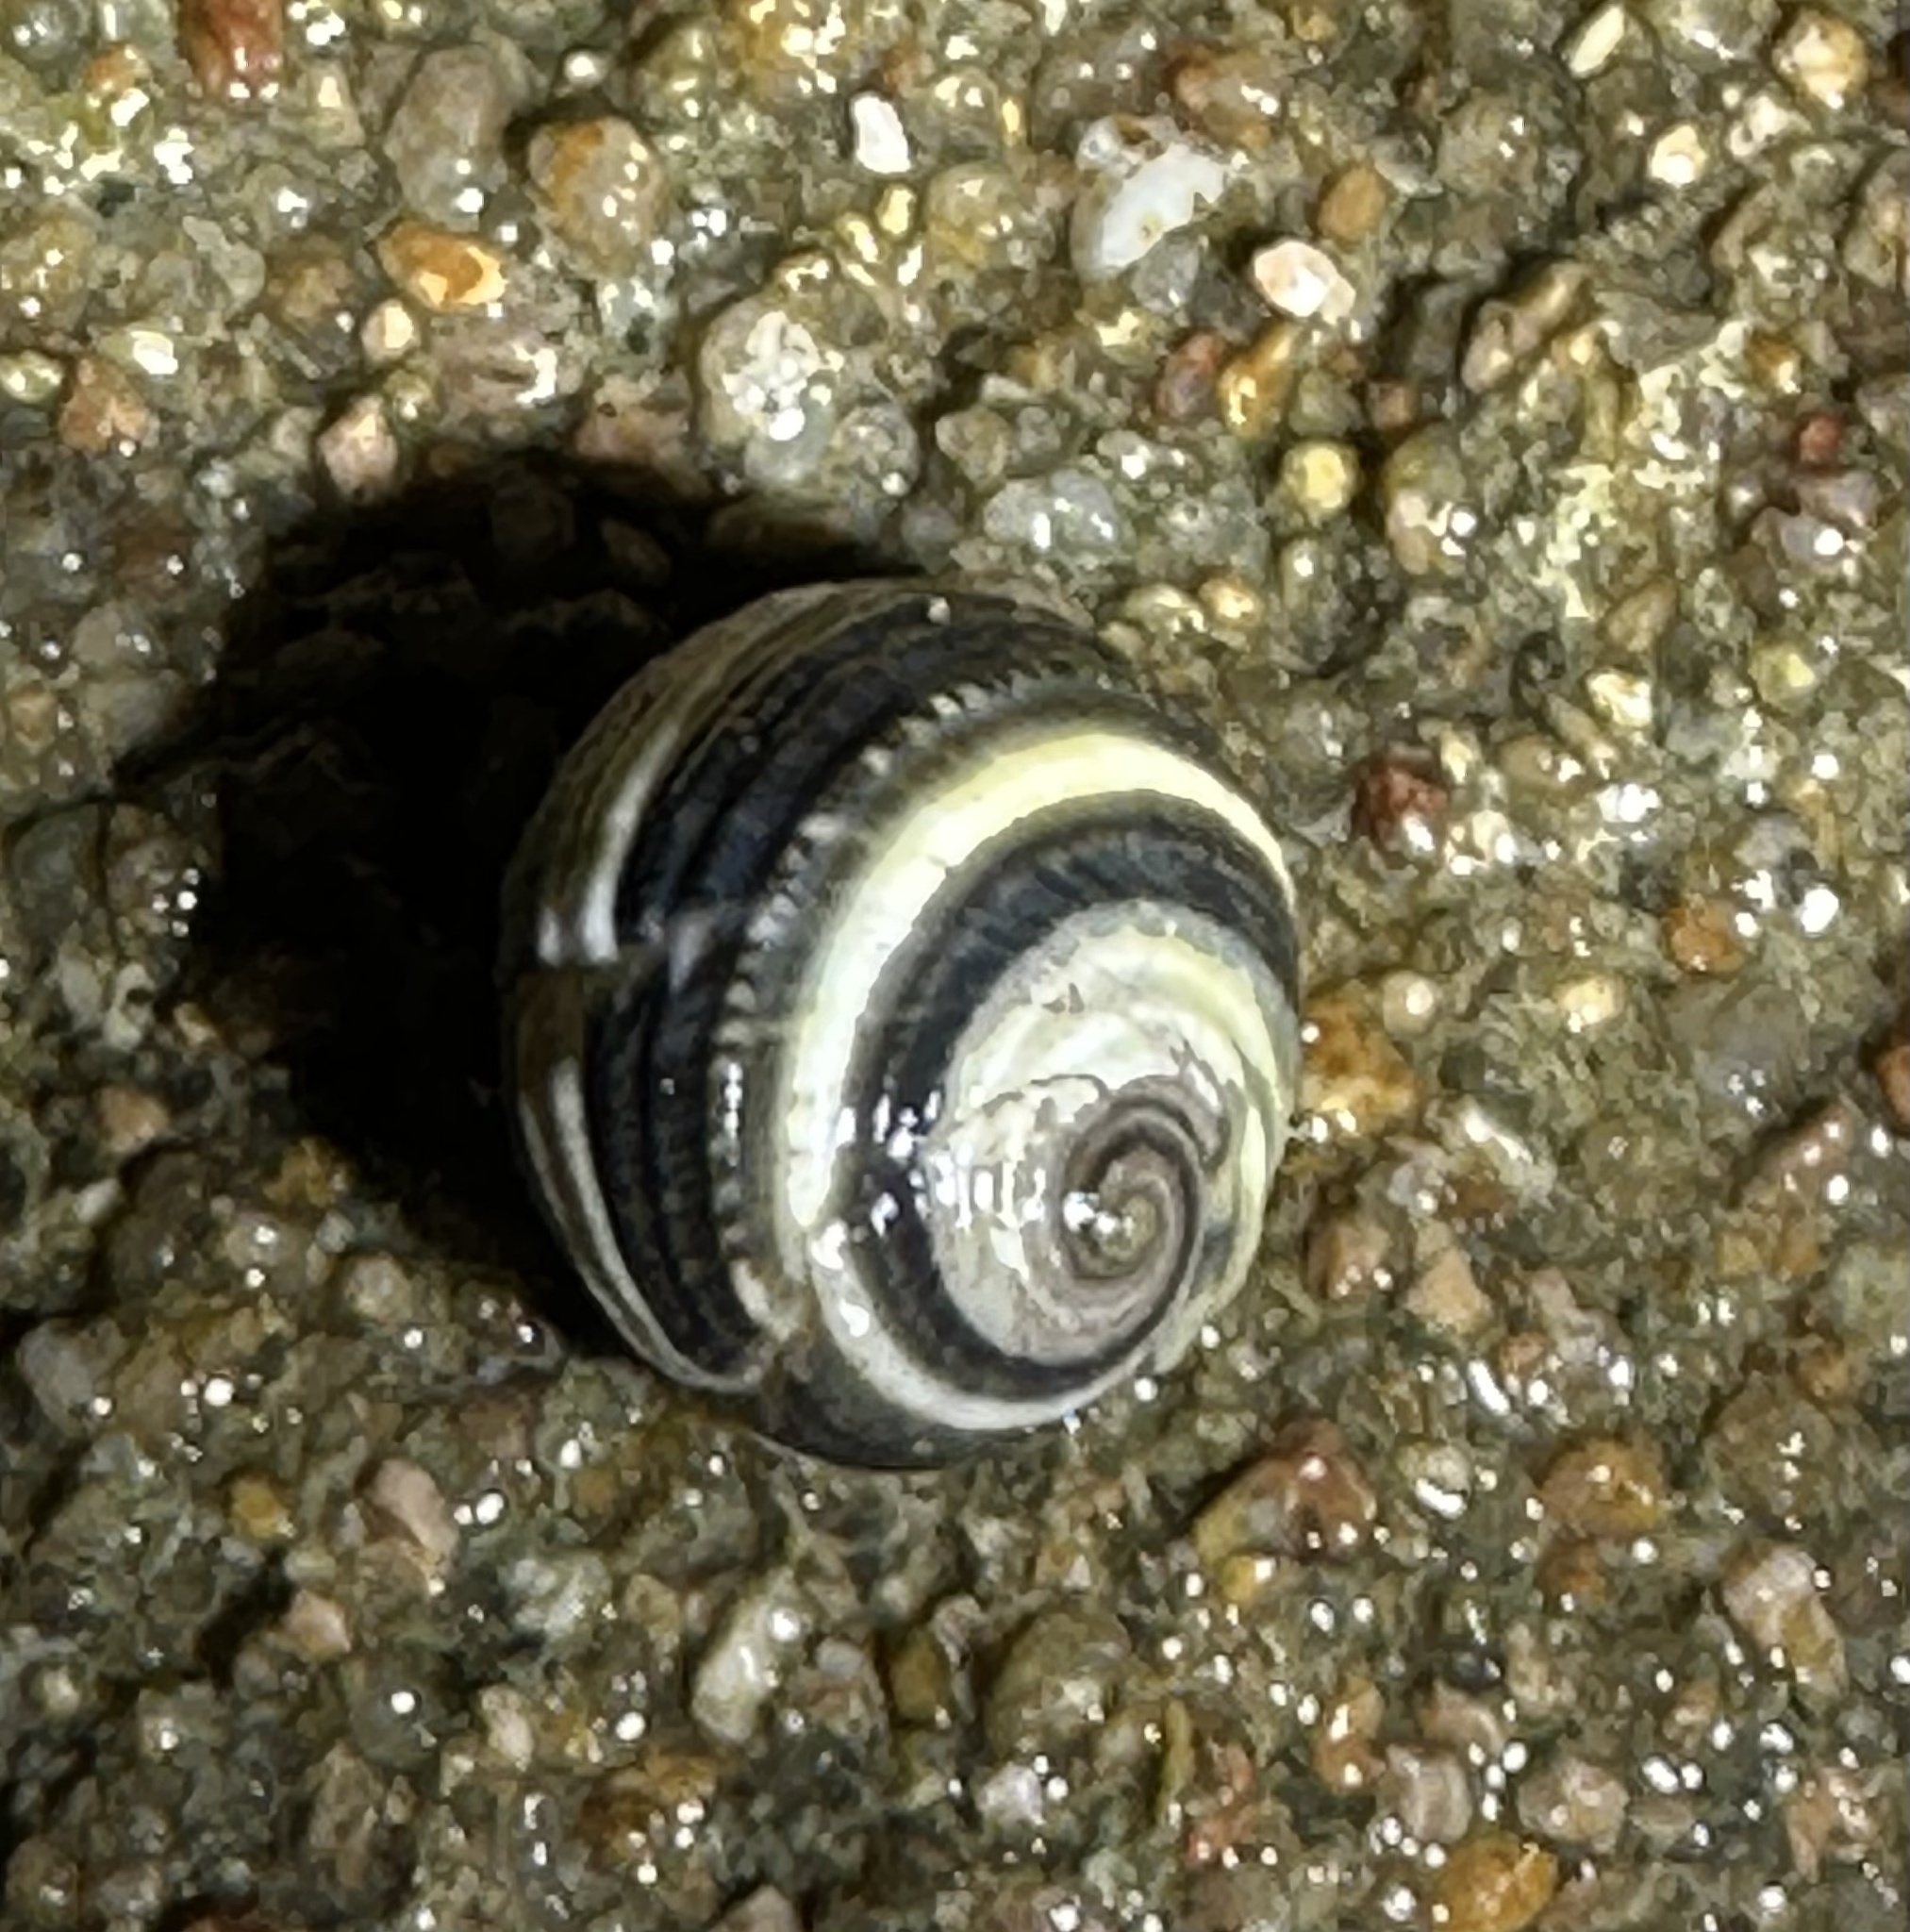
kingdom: Animalia
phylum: Mollusca
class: Gastropoda
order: Cycloneritida
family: Neritidae
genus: Nerita
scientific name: Nerita histrio
